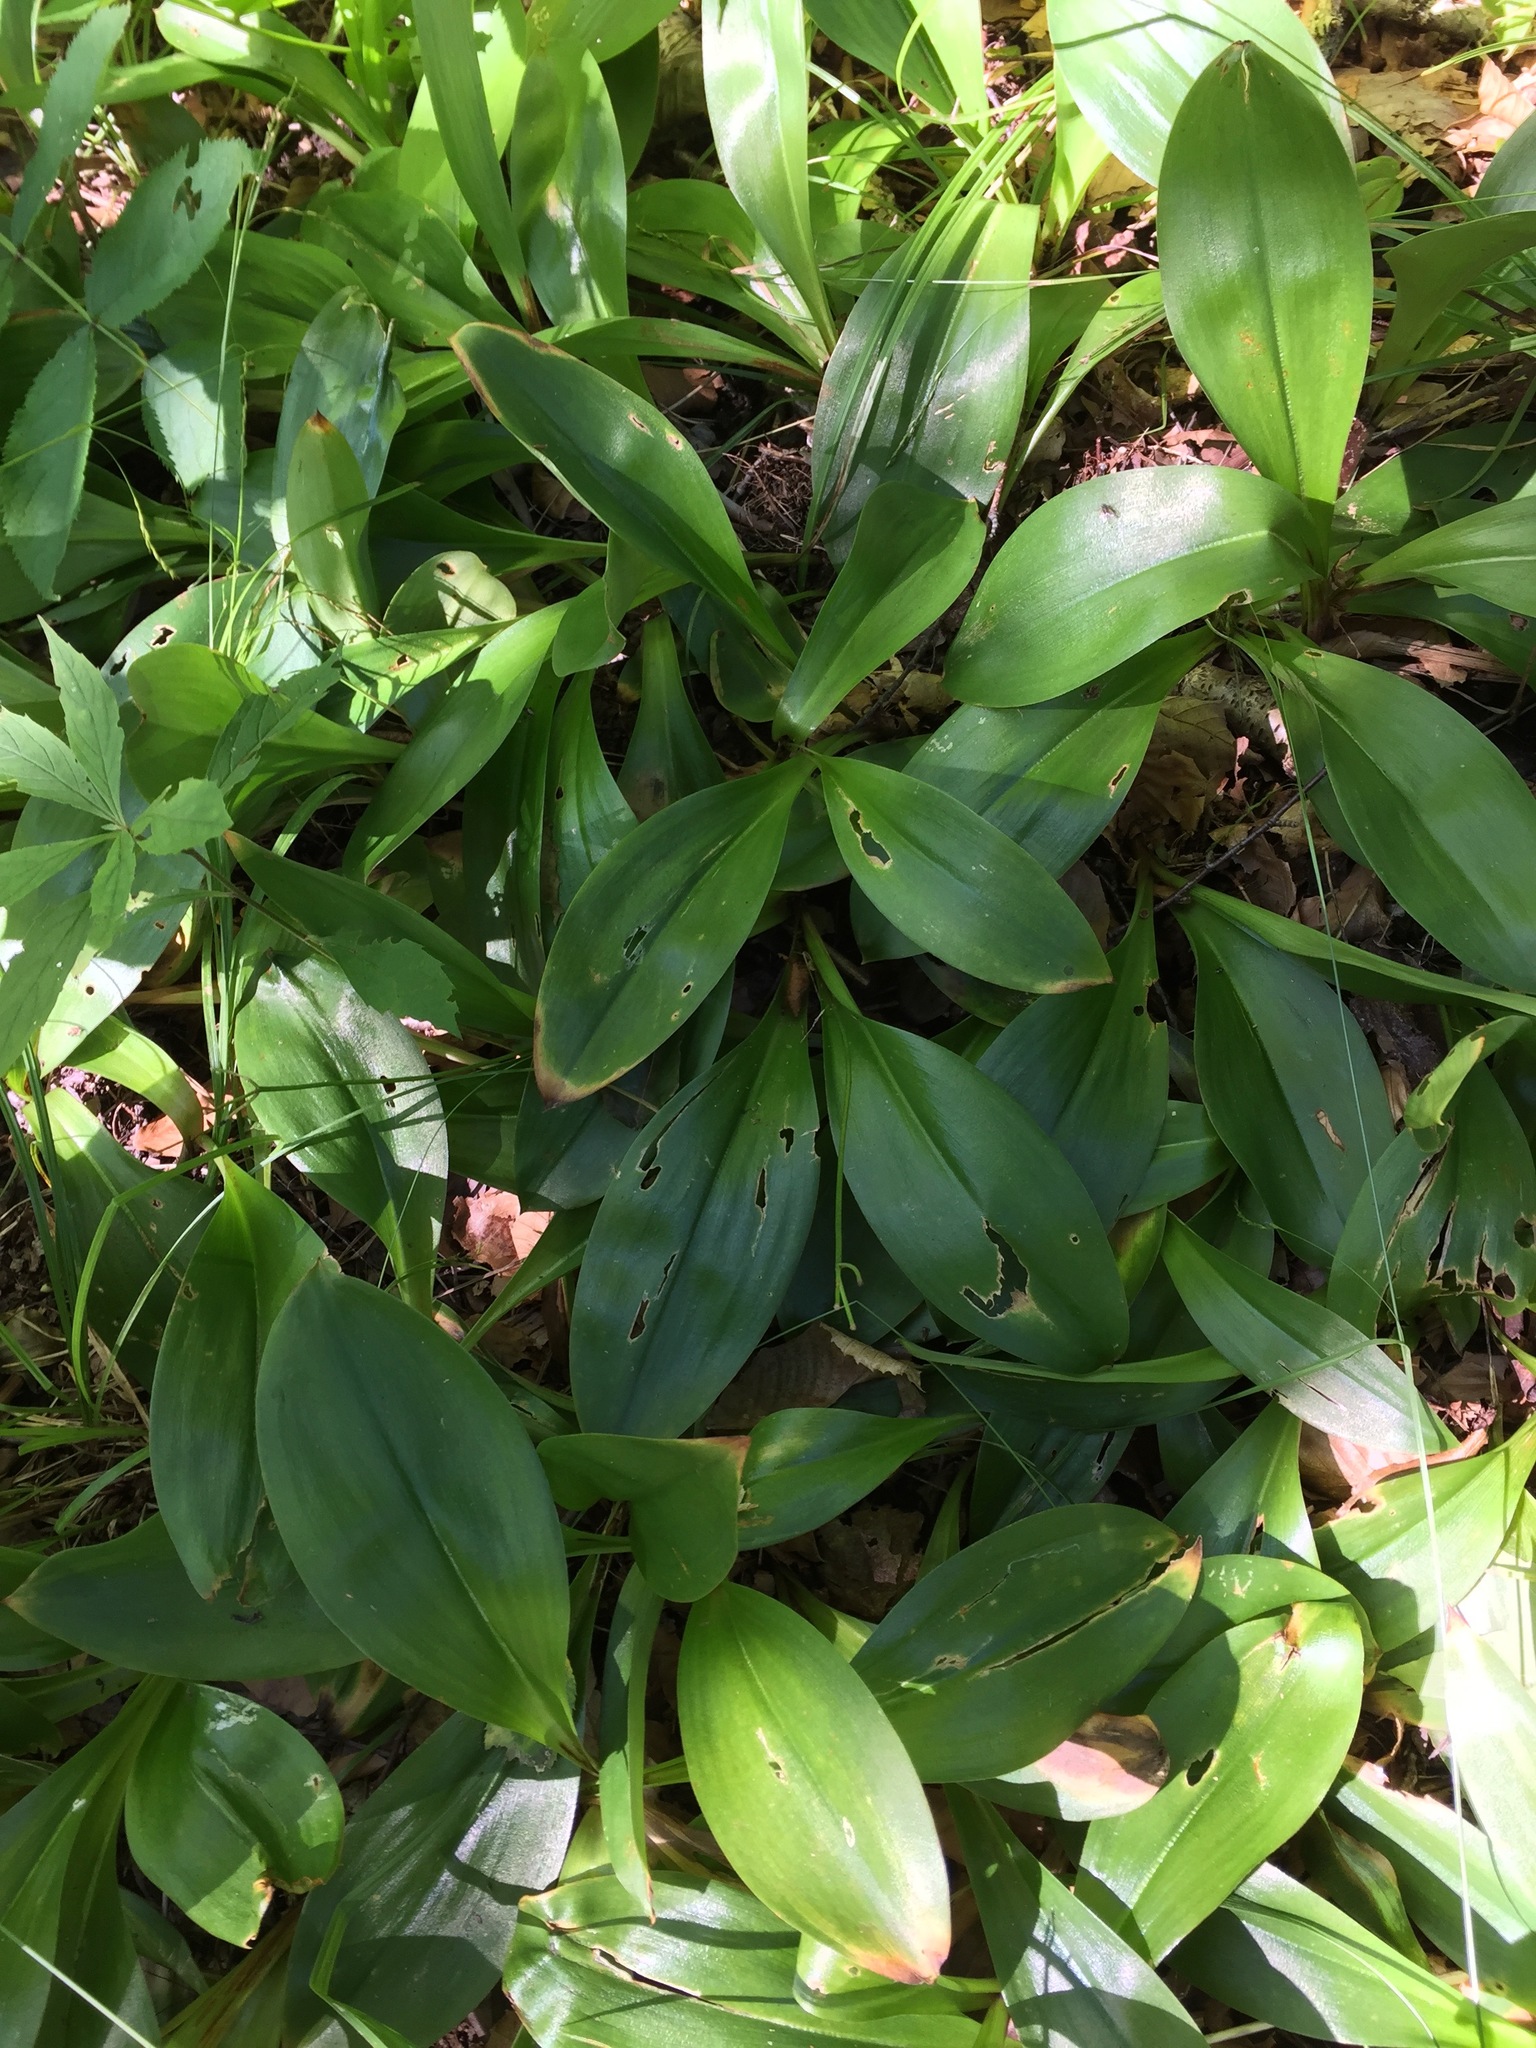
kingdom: Plantae
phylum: Tracheophyta
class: Liliopsida
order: Liliales
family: Liliaceae
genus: Clintonia
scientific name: Clintonia borealis
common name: Yellow clintonia
